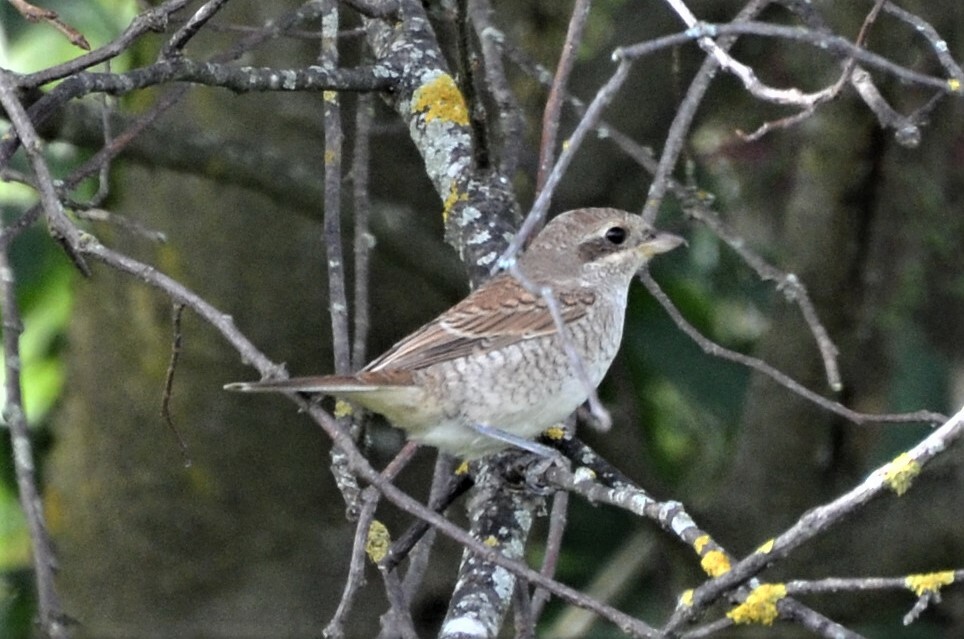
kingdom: Animalia
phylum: Chordata
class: Aves
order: Passeriformes
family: Laniidae
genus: Lanius
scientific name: Lanius collurio
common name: Red-backed shrike
